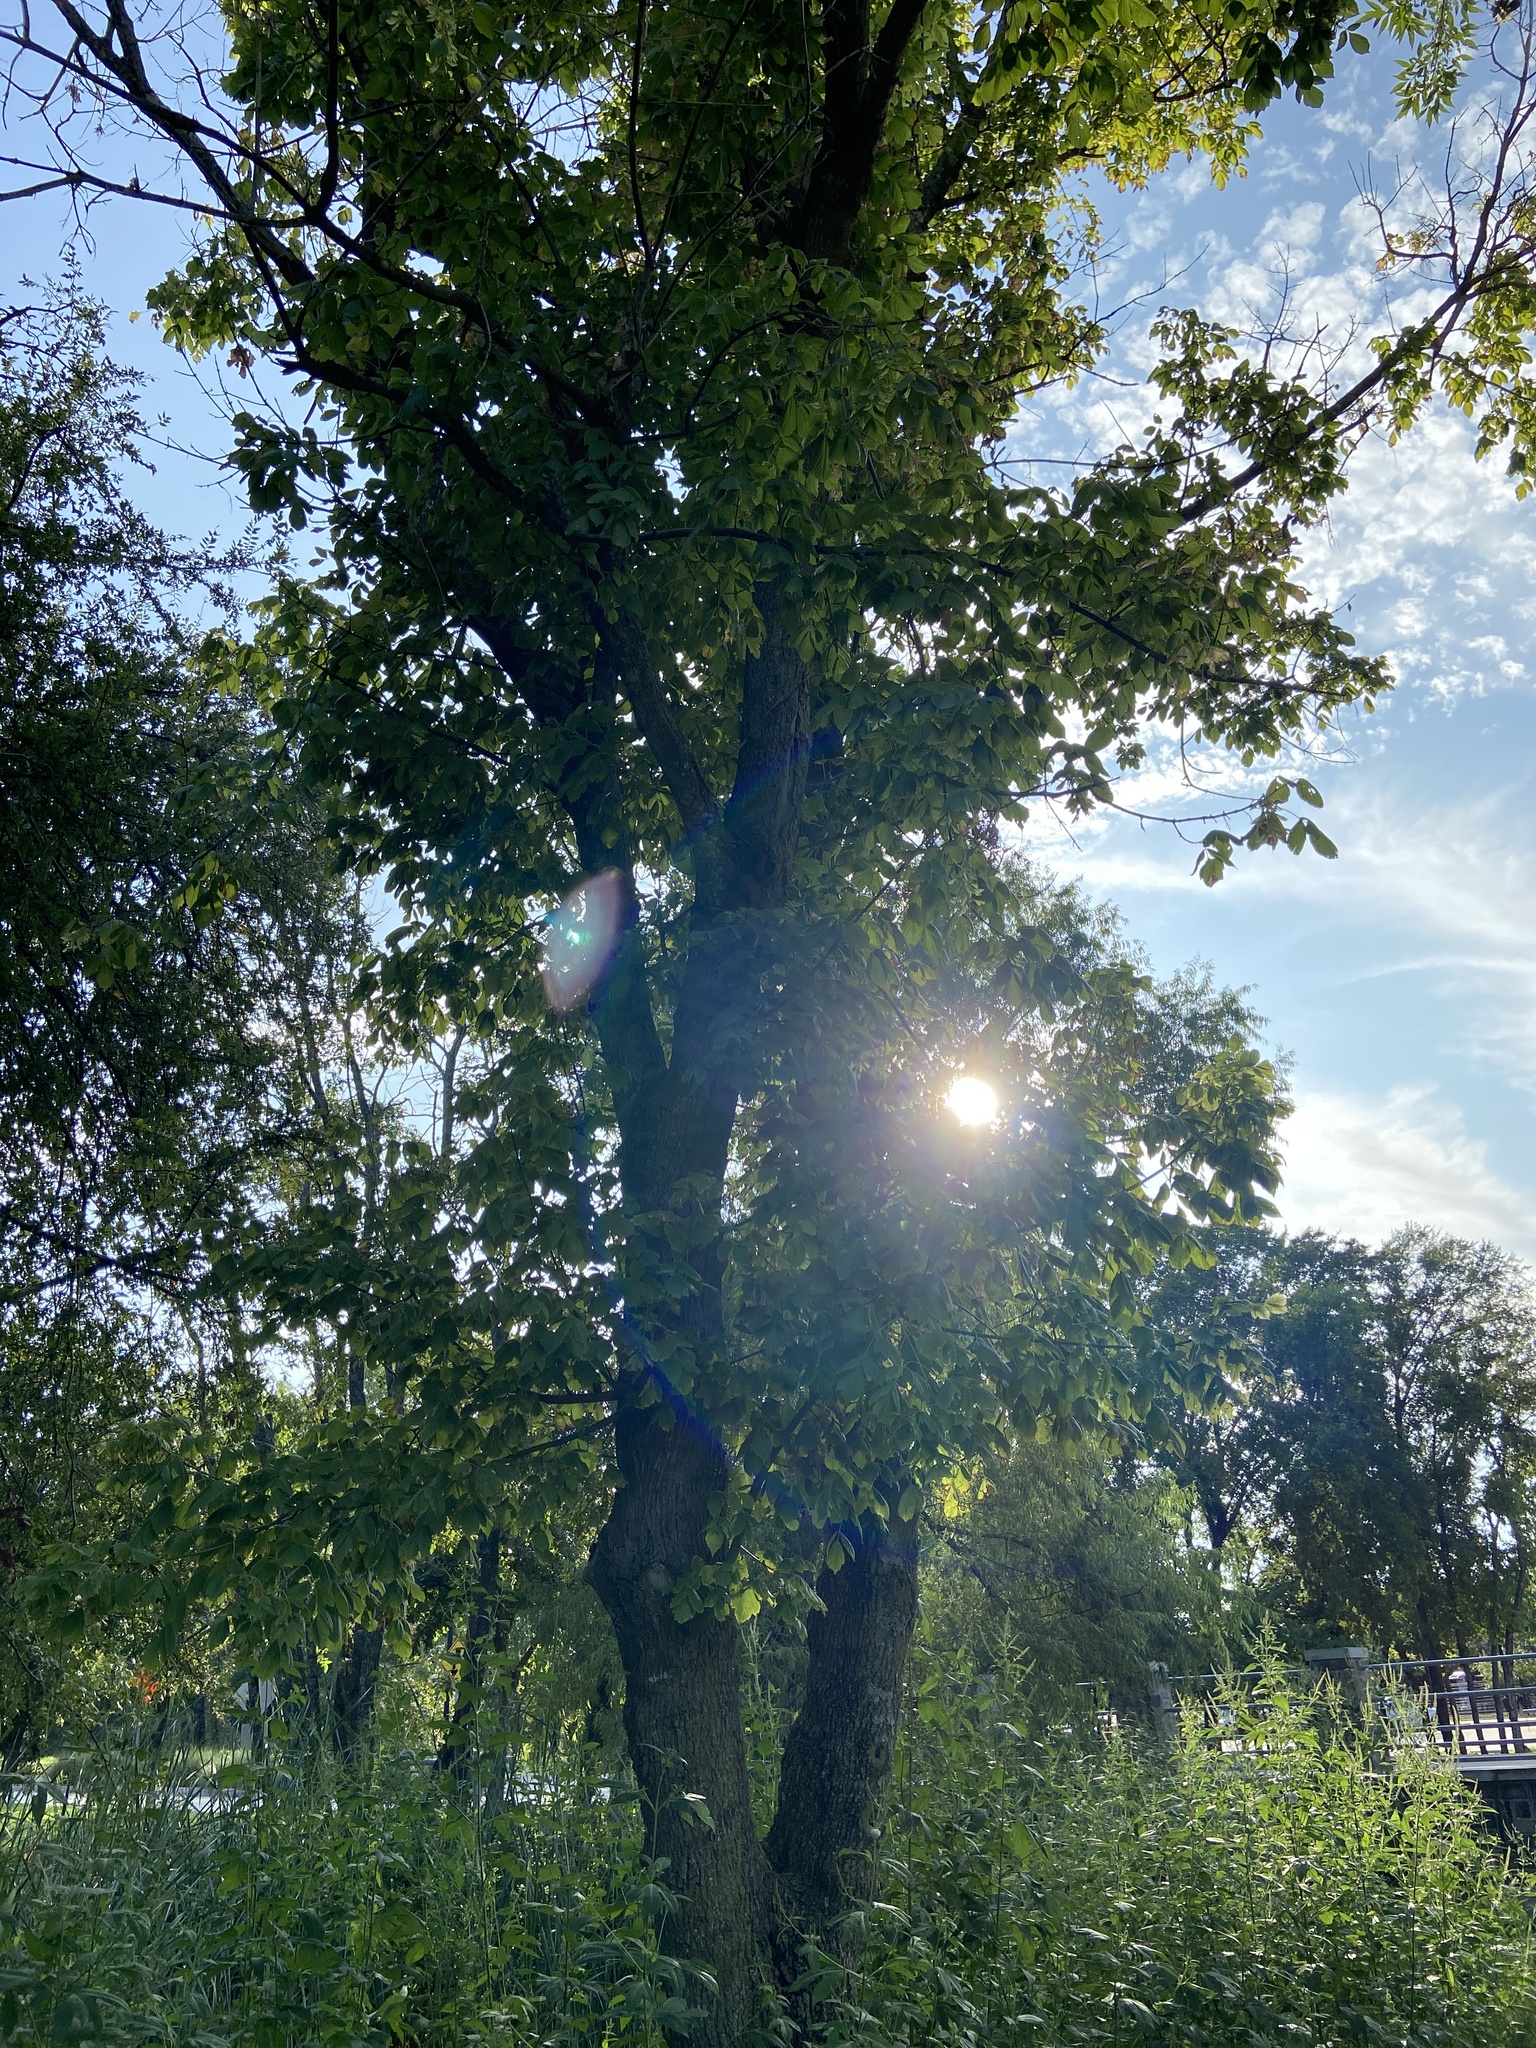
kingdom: Plantae
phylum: Tracheophyta
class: Magnoliopsida
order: Sapindales
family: Sapindaceae
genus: Acer
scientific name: Acer negundo
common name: Ashleaf maple
